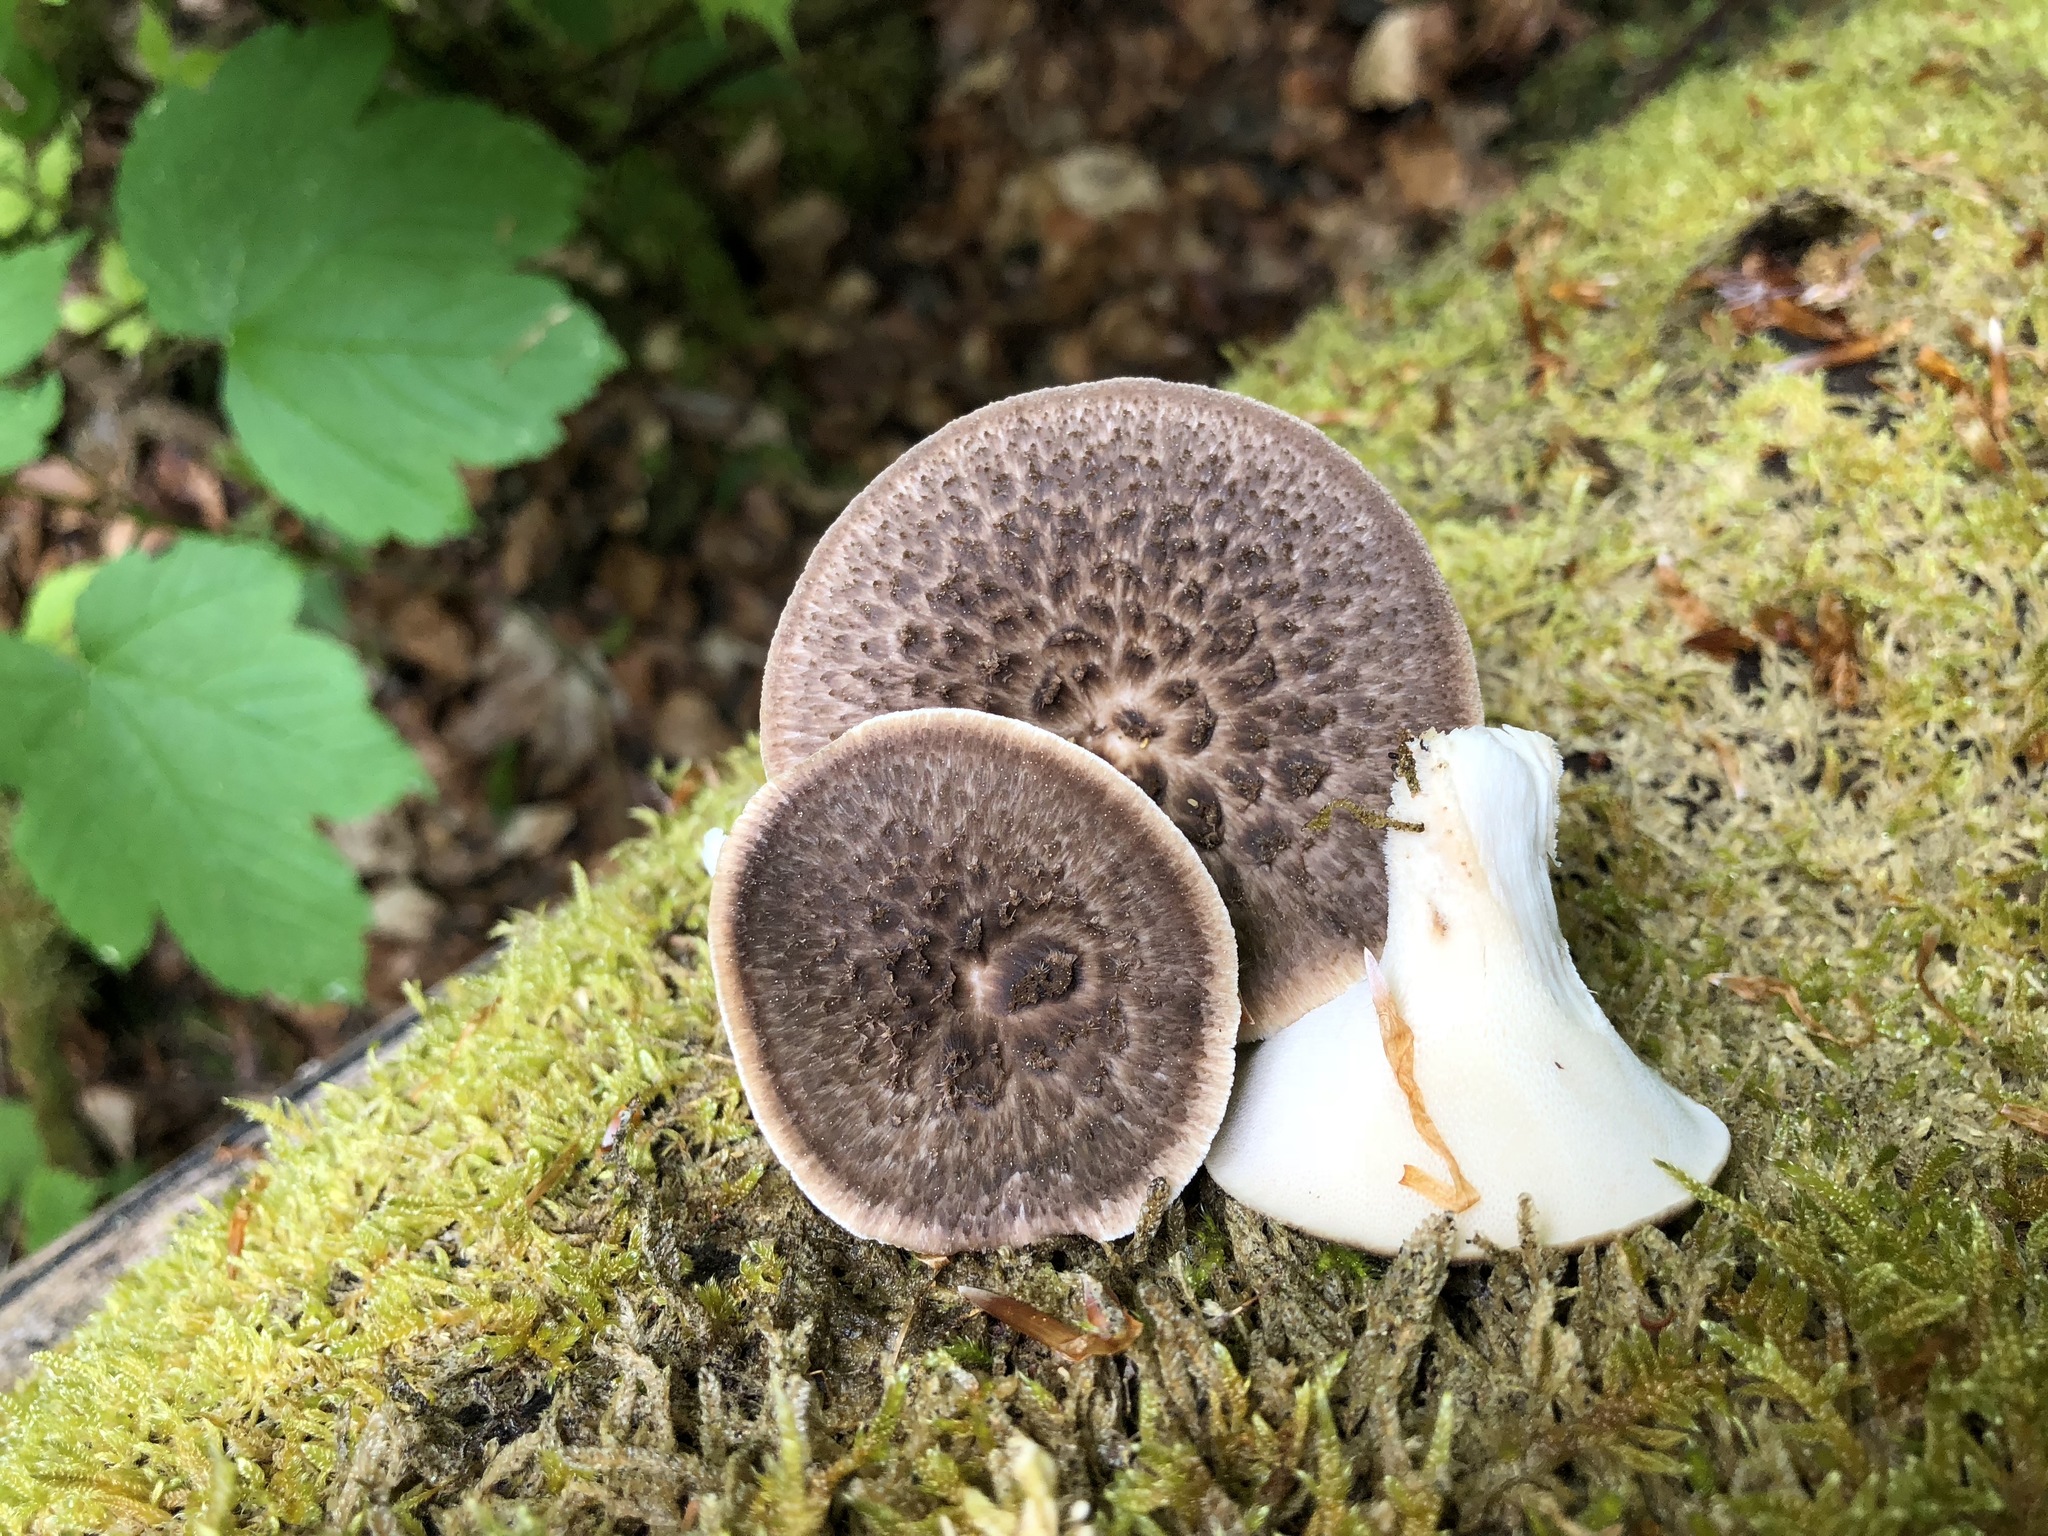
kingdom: Fungi
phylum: Basidiomycota
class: Agaricomycetes
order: Polyporales
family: Polyporaceae
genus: Polyporus
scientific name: Polyporus tuberaster
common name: Tuberous polypore
